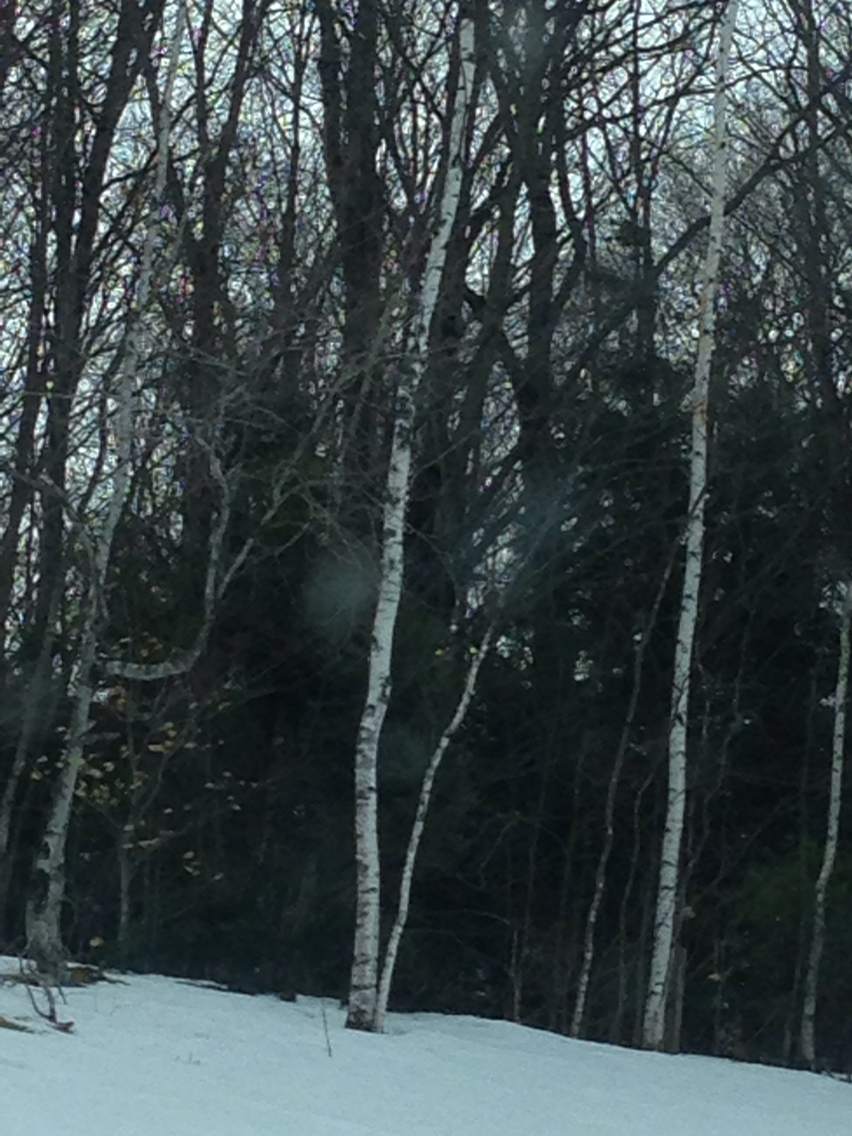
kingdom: Plantae
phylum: Tracheophyta
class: Magnoliopsida
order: Fagales
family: Betulaceae
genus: Betula
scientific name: Betula populifolia
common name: Fire birch
